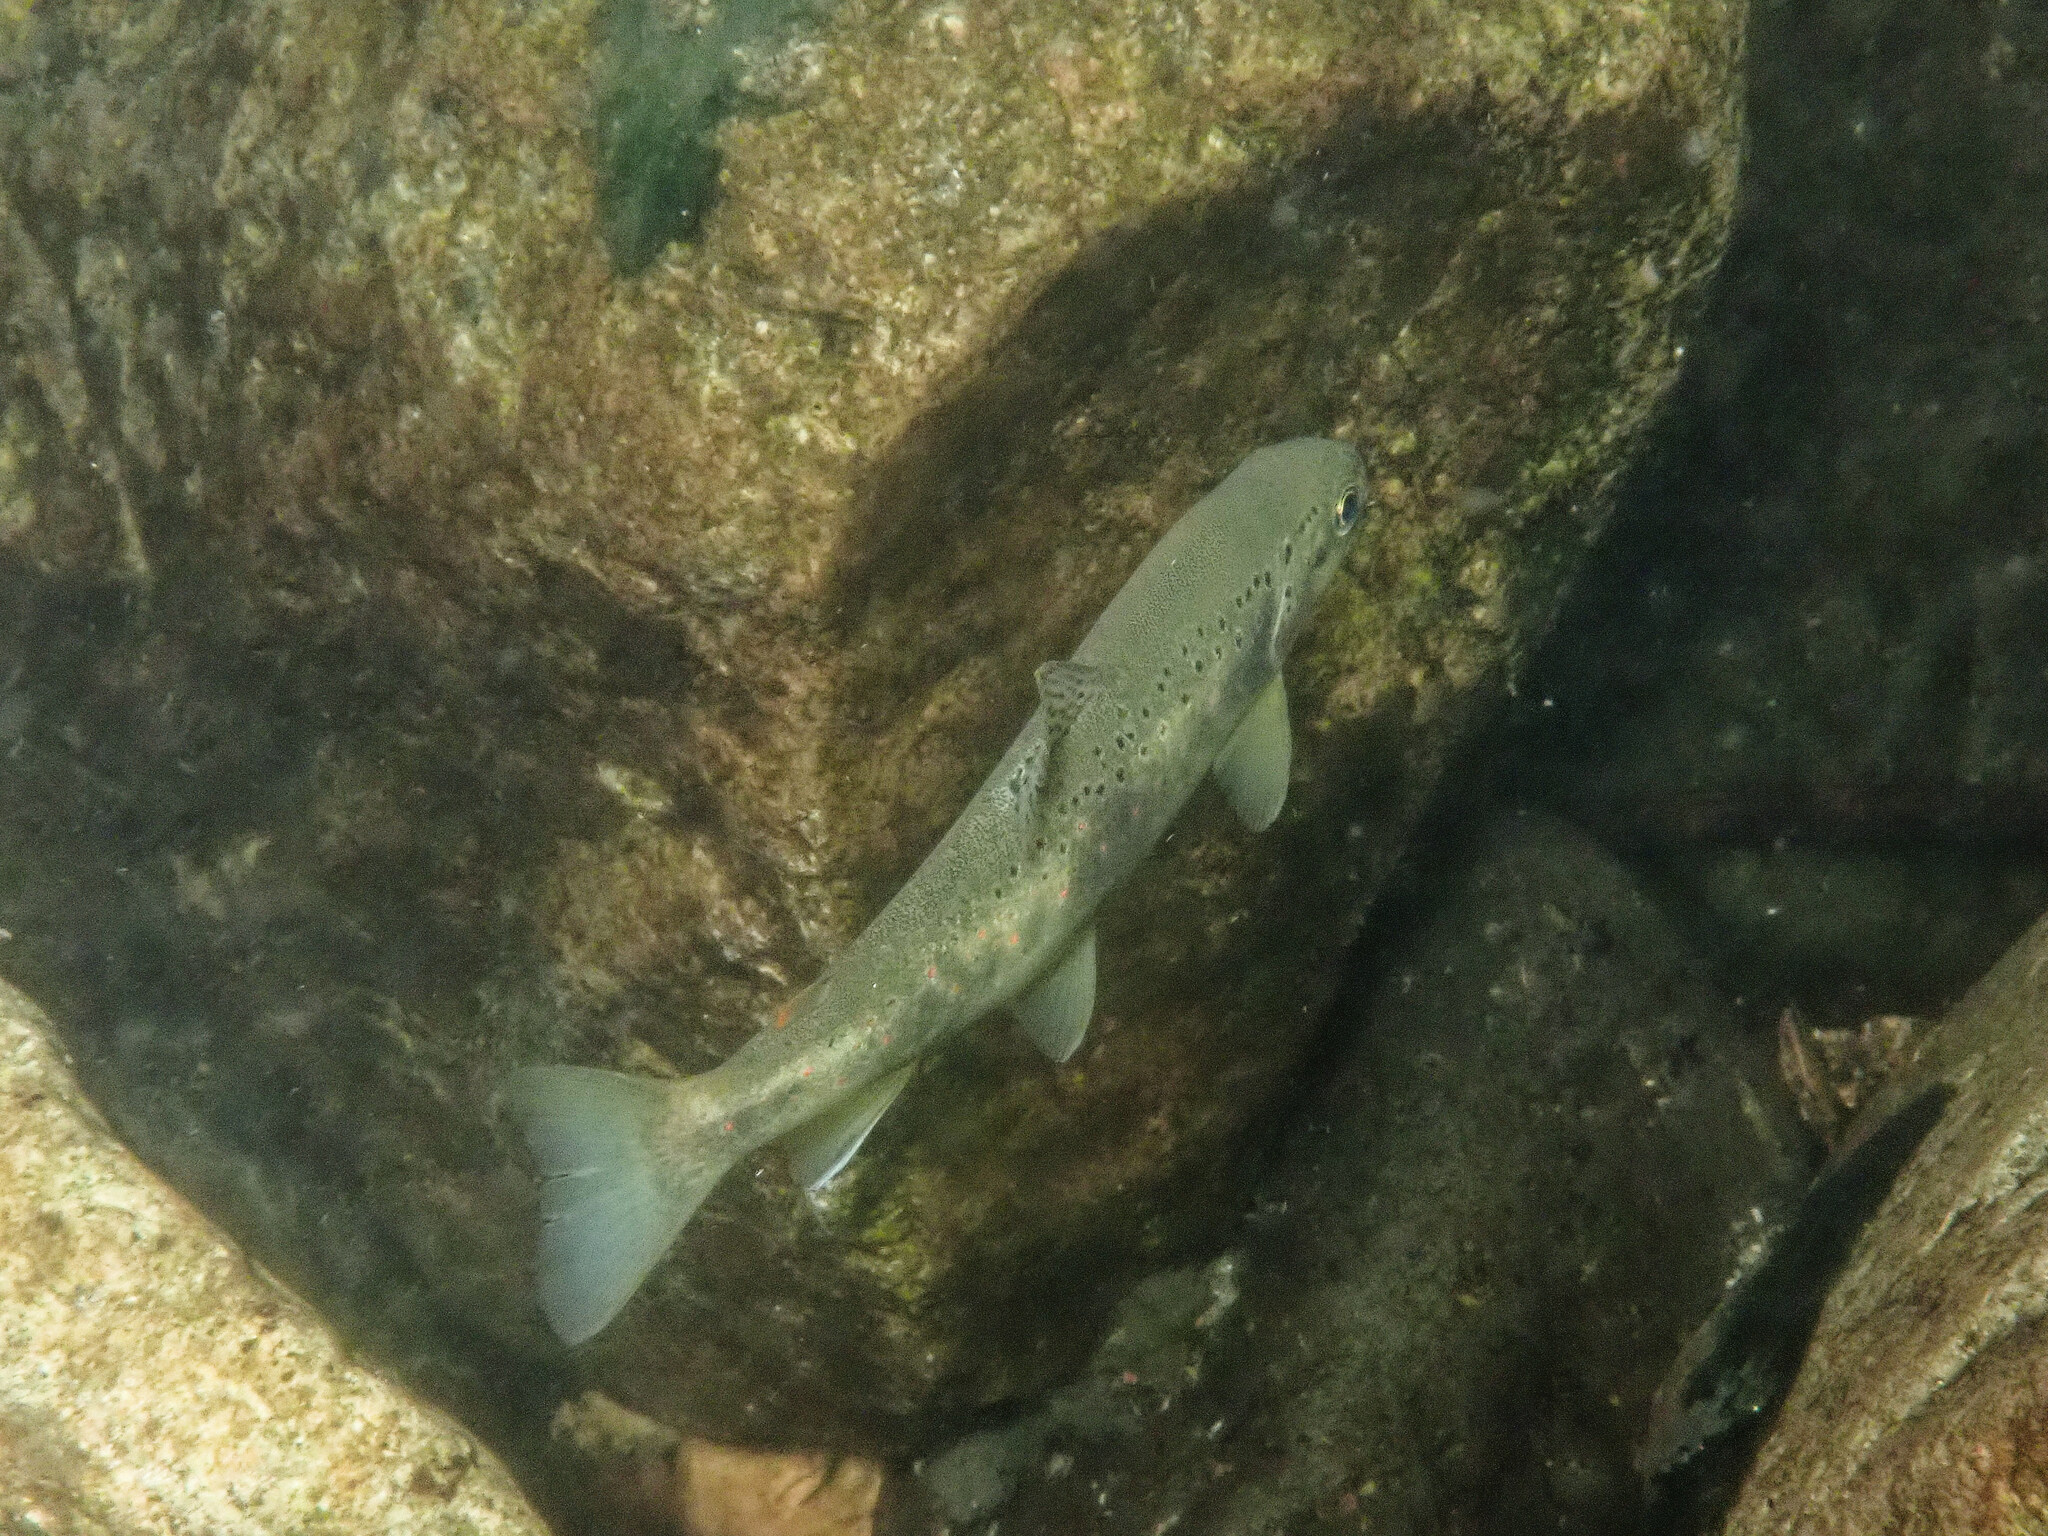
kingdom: Animalia
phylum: Chordata
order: Salmoniformes
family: Salmonidae
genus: Salmo
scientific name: Salmo trutta
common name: Brown trout
